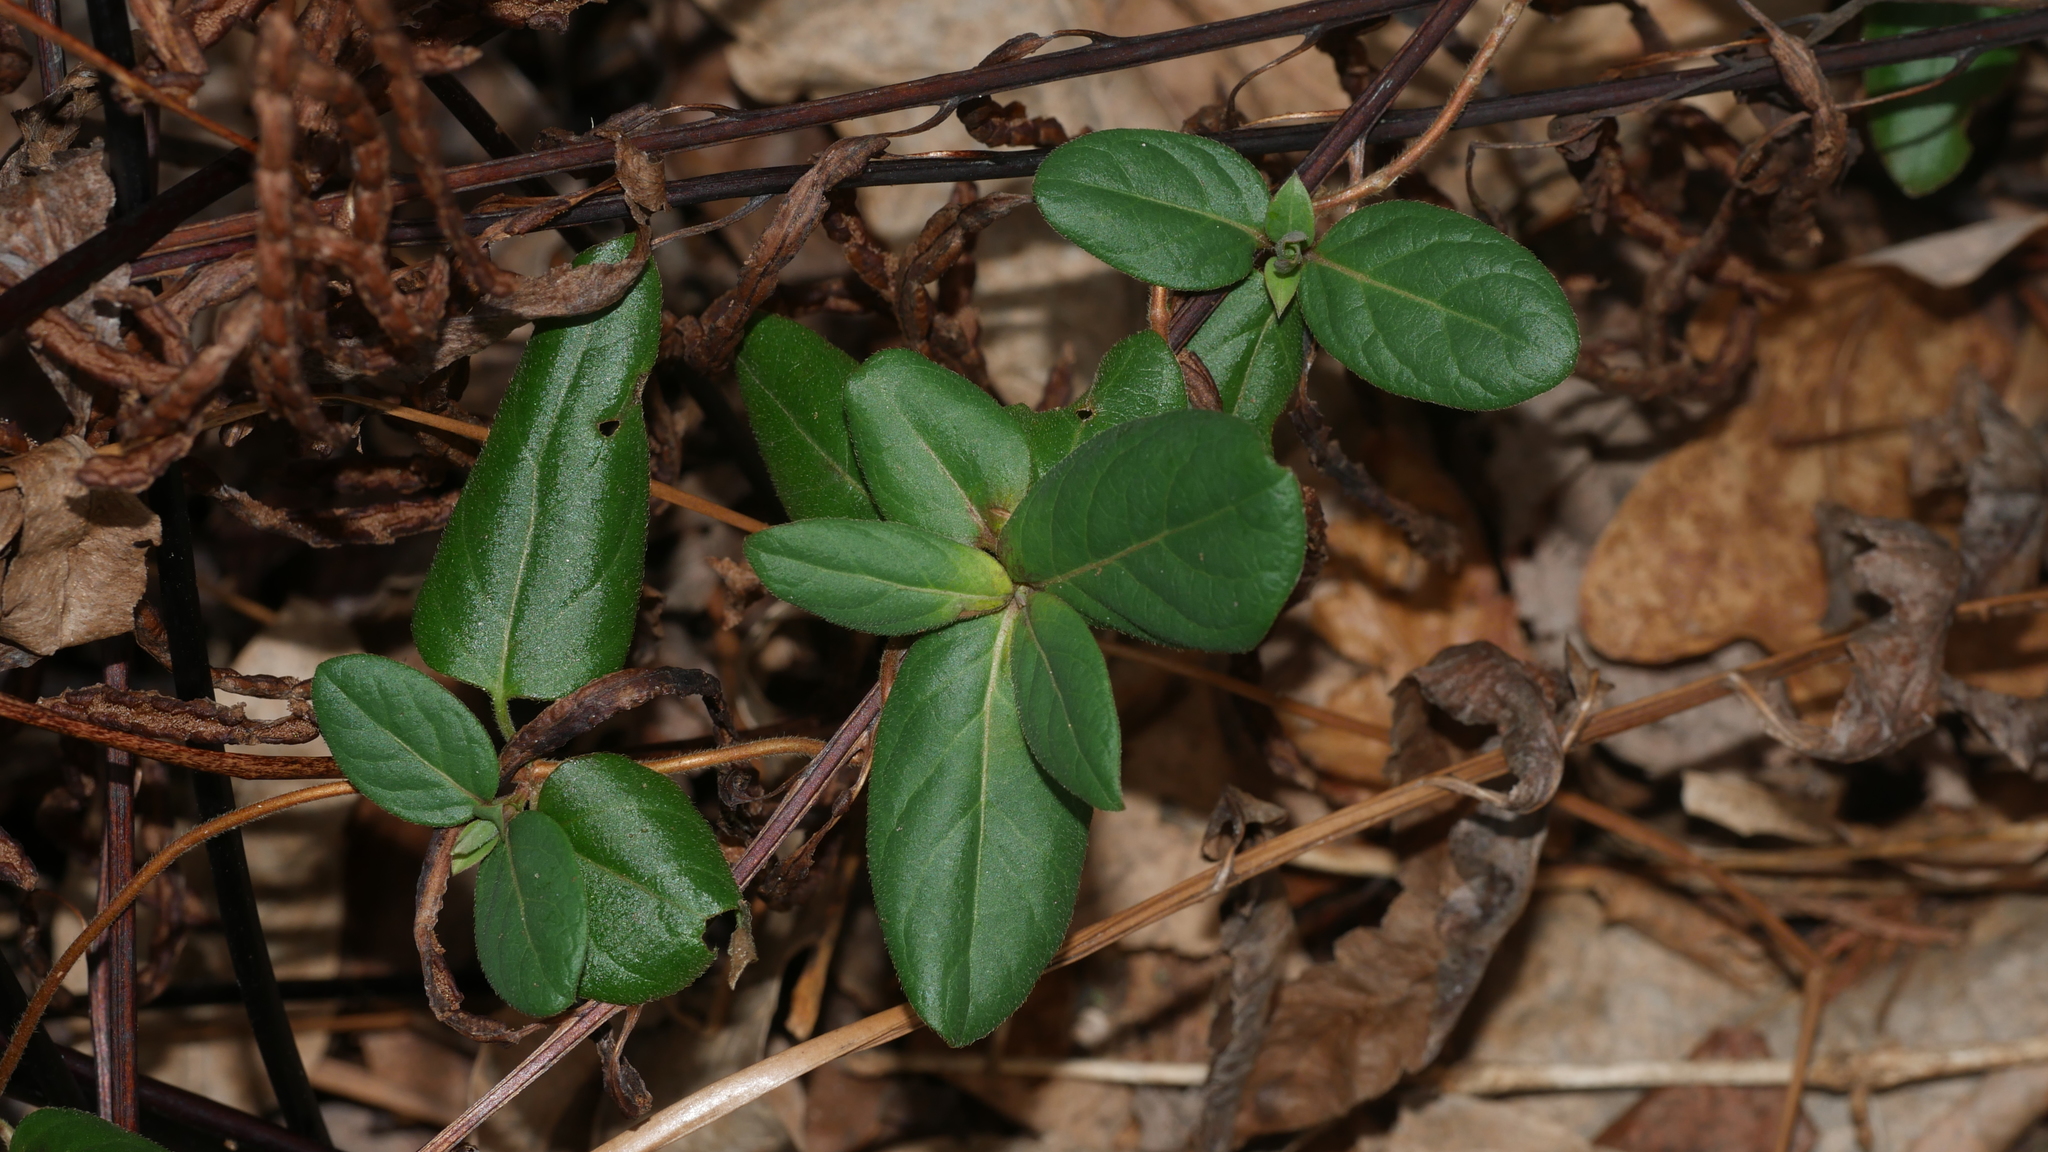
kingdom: Plantae
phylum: Tracheophyta
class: Magnoliopsida
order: Dipsacales
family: Caprifoliaceae
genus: Lonicera
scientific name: Lonicera japonica
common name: Japanese honeysuckle
